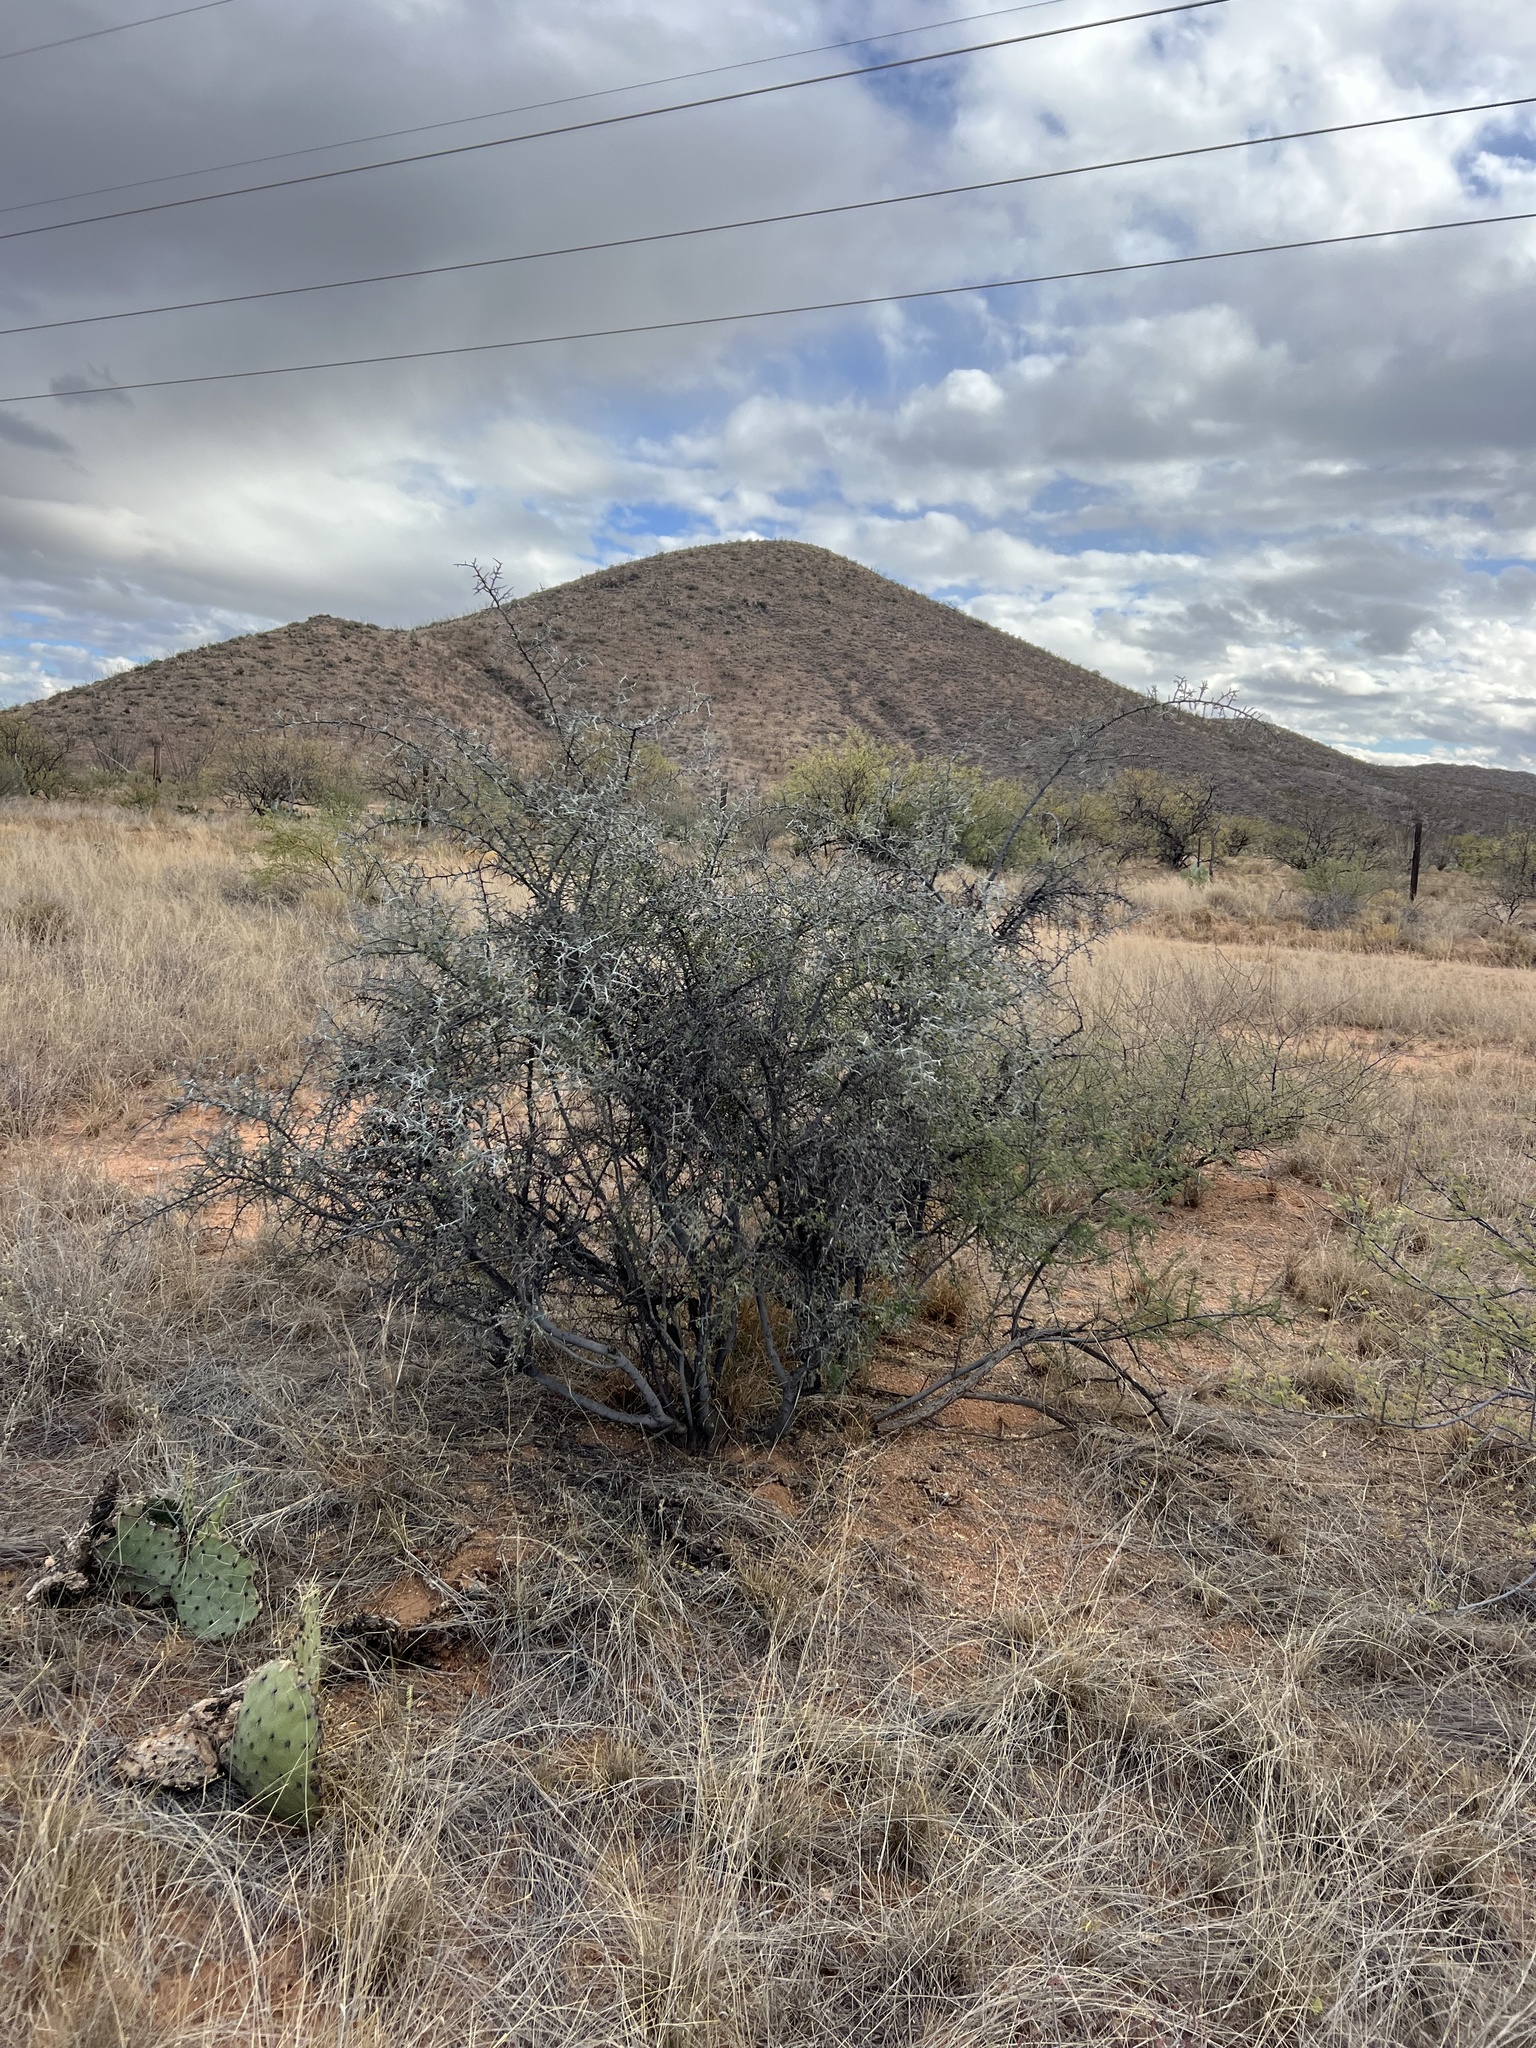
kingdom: Plantae
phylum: Tracheophyta
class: Magnoliopsida
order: Rosales
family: Rhamnaceae
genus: Sarcomphalus
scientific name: Sarcomphalus obtusifolius
